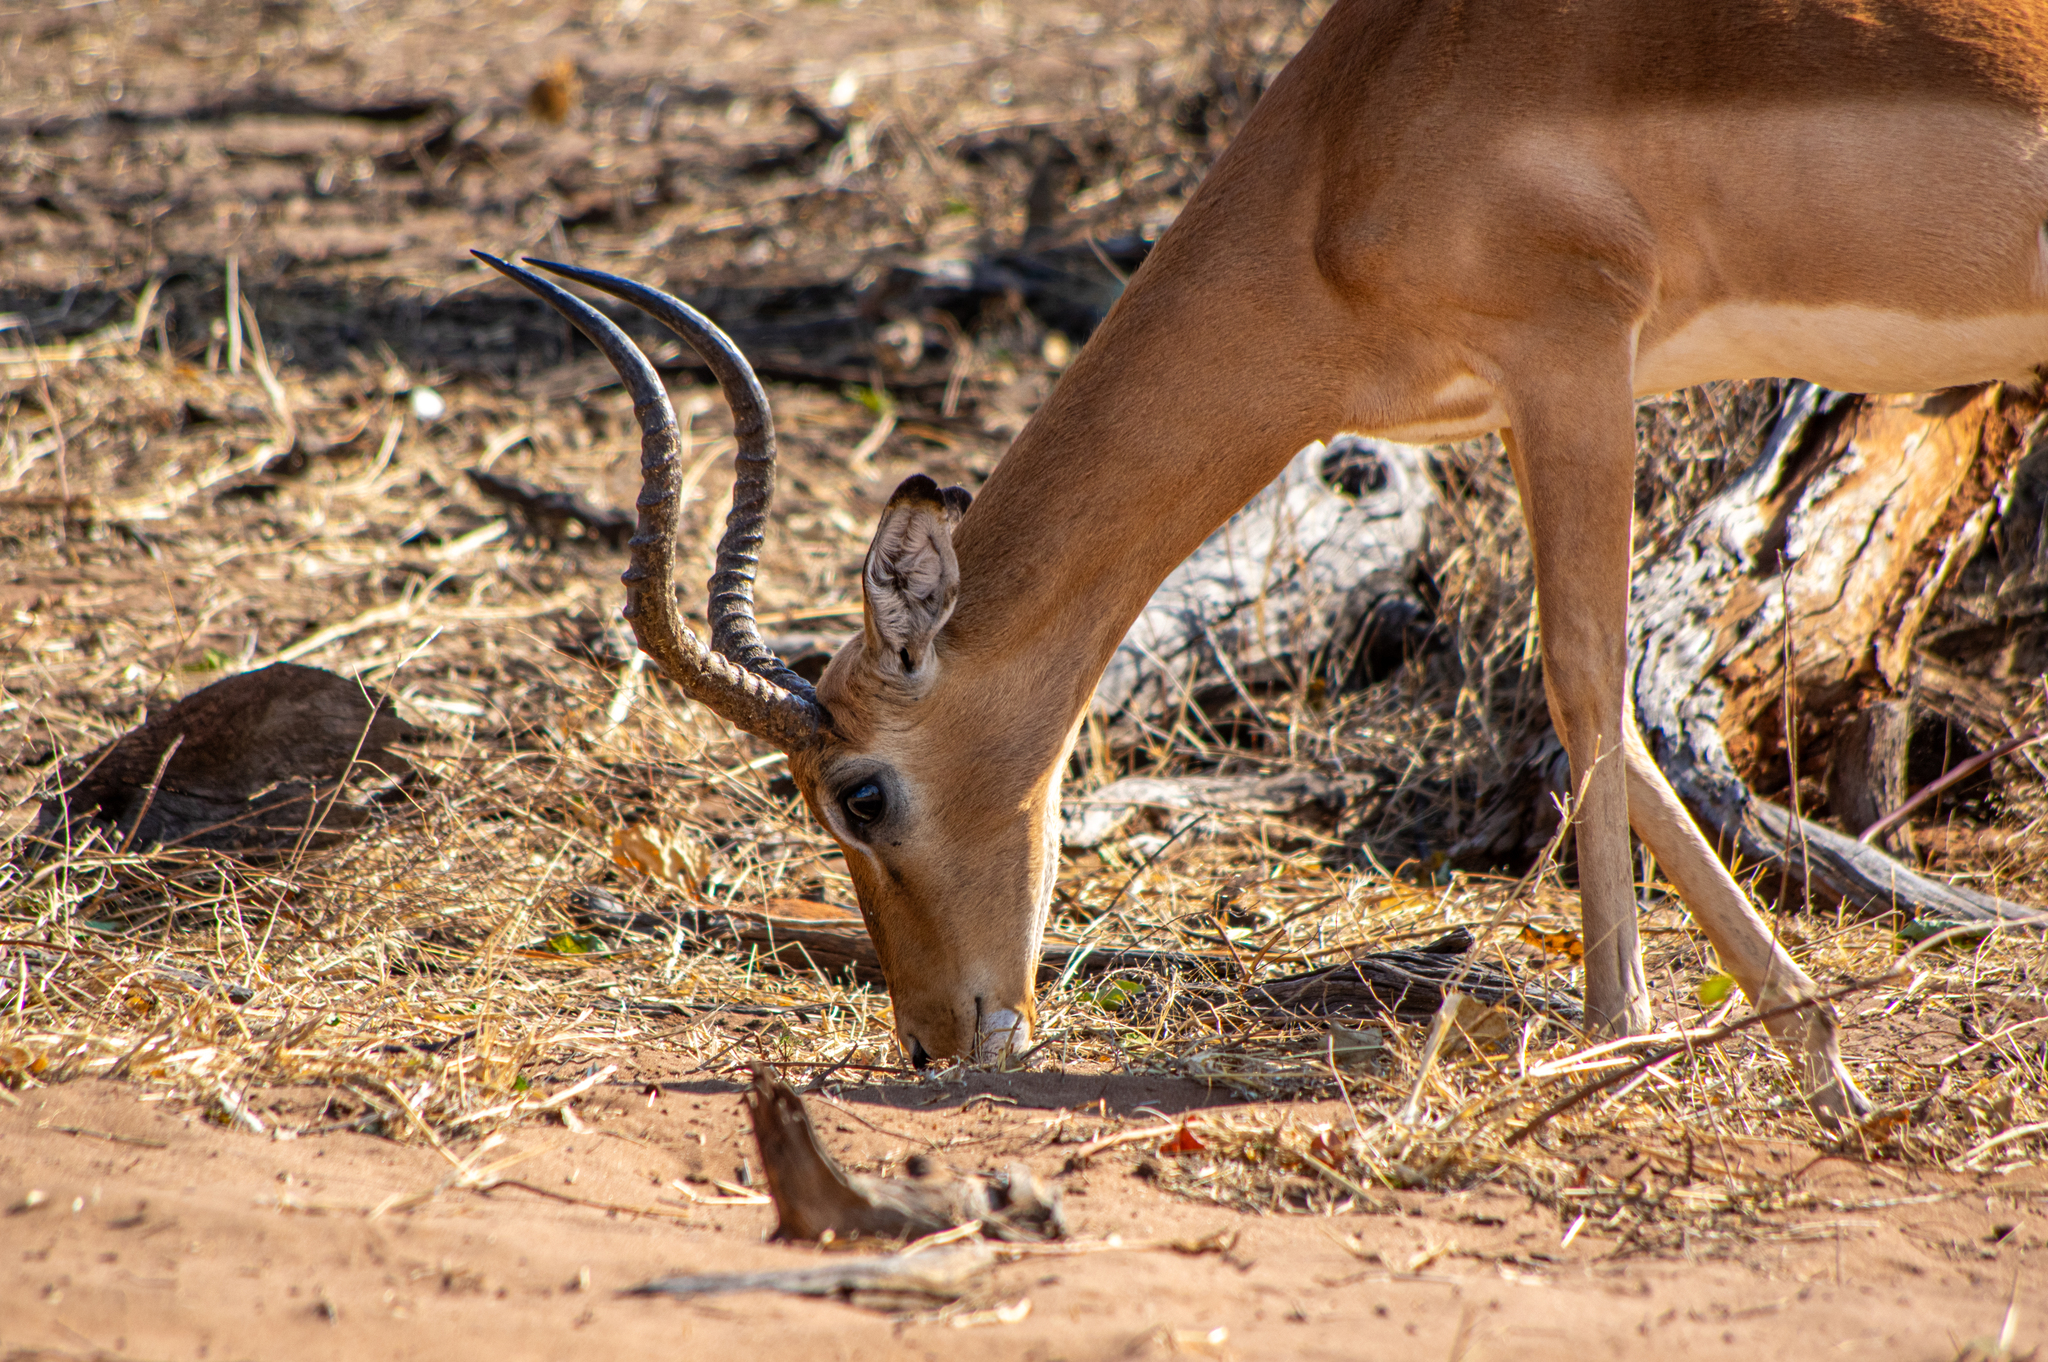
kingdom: Animalia
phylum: Chordata
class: Mammalia
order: Artiodactyla
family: Bovidae
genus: Aepyceros
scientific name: Aepyceros melampus
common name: Impala
